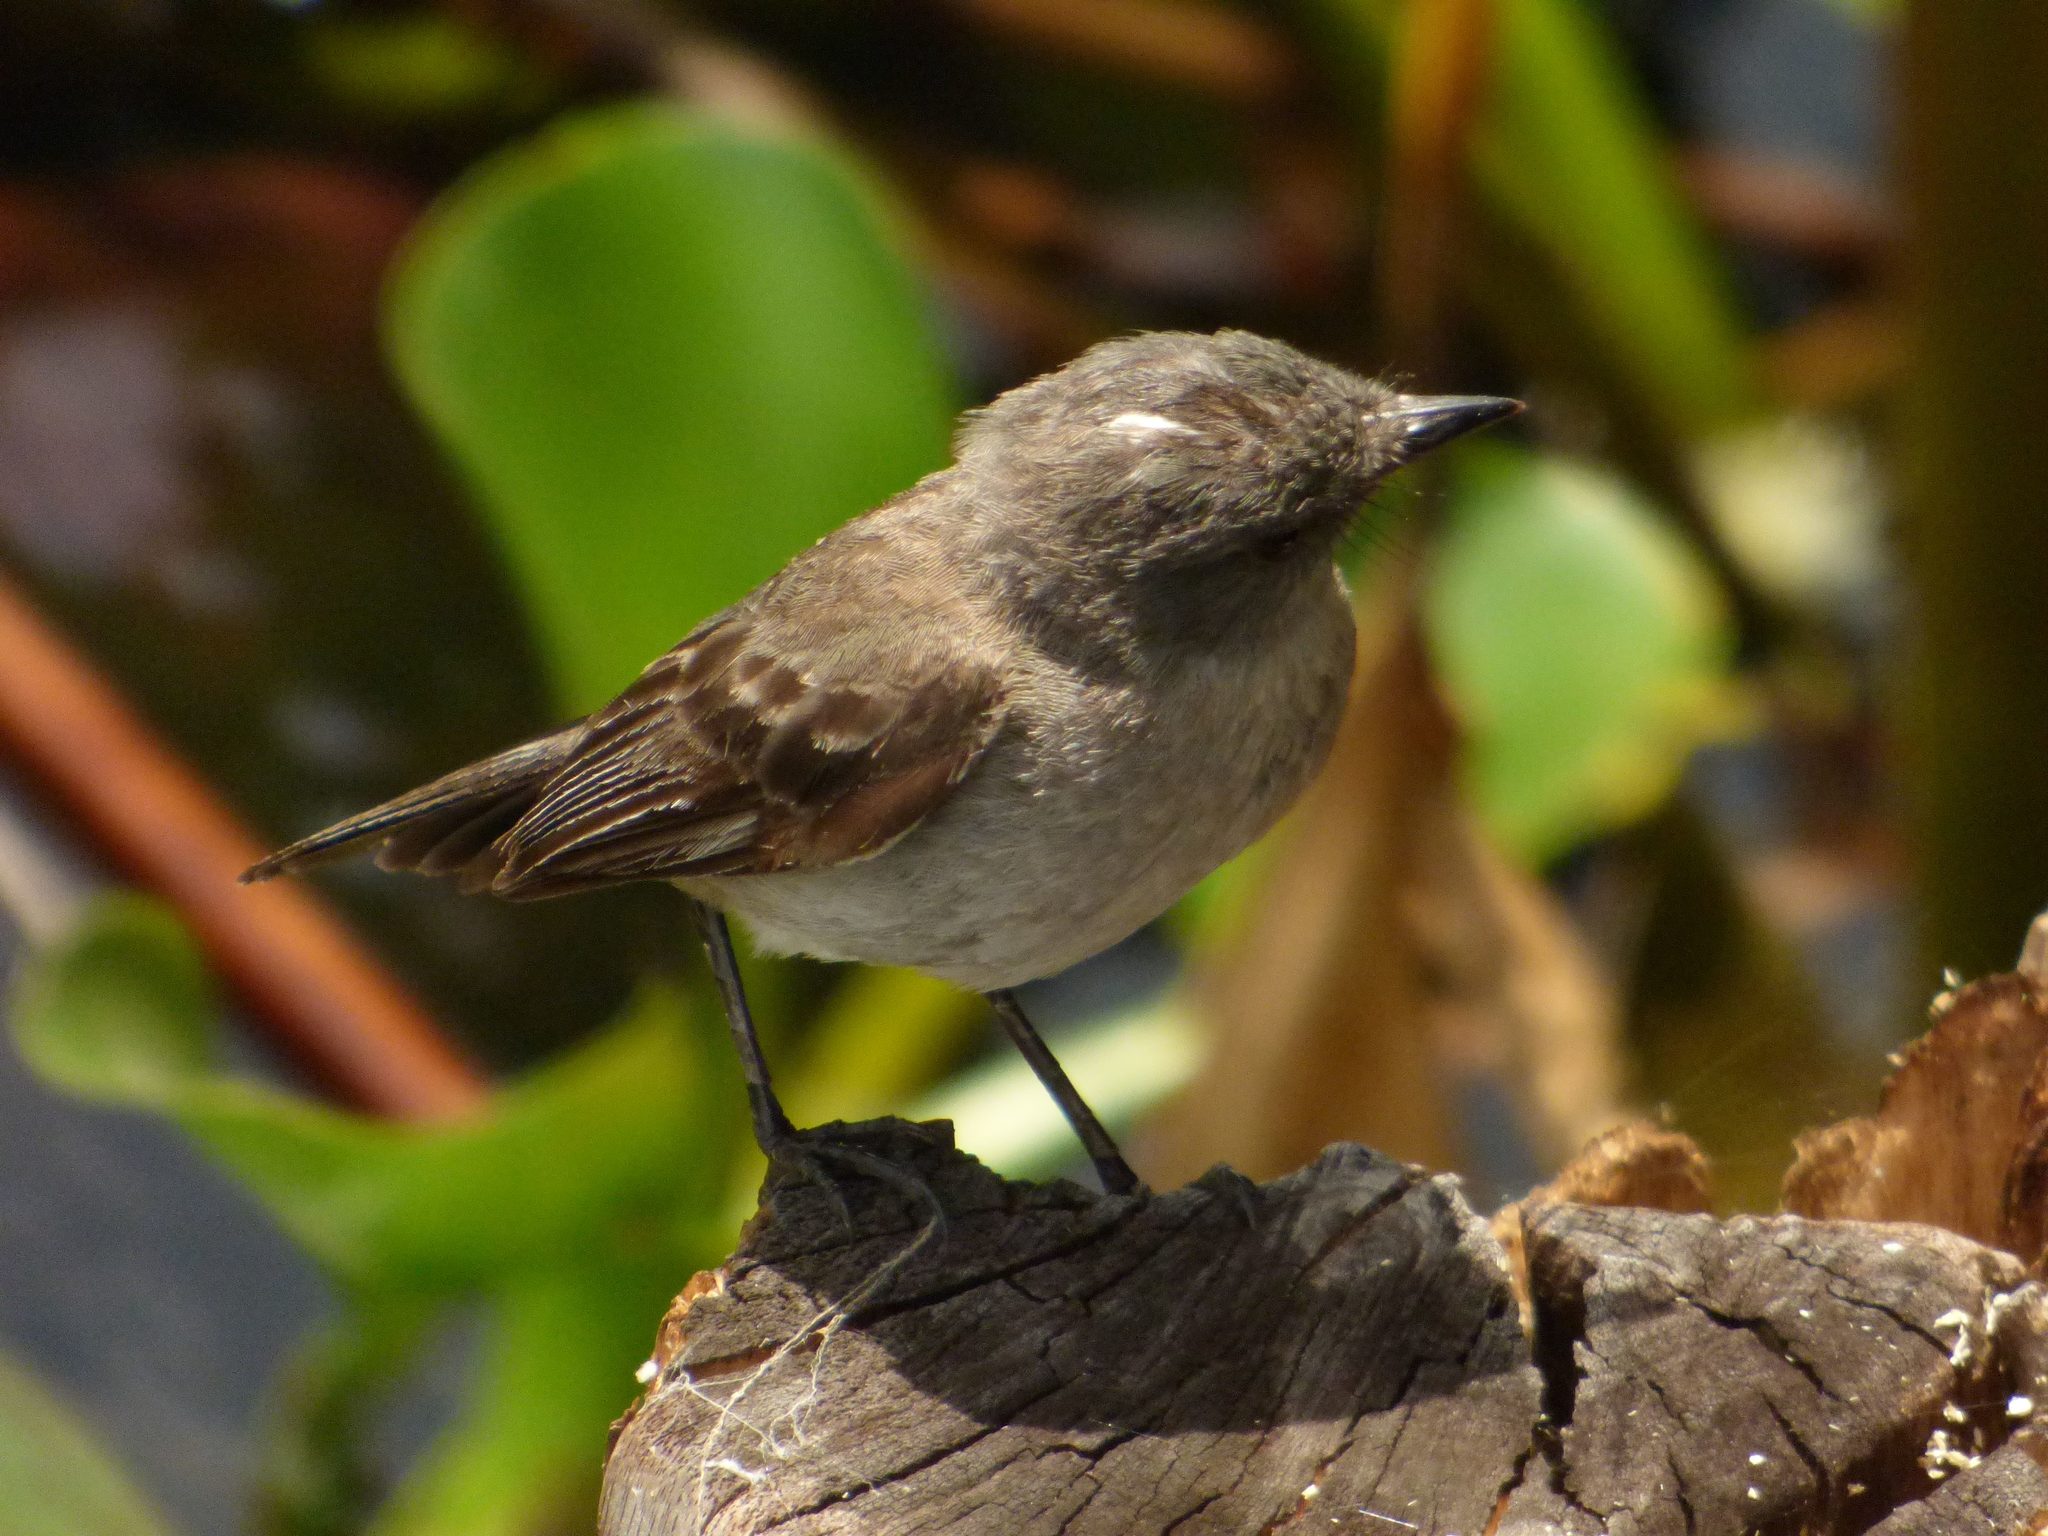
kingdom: Animalia
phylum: Chordata
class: Aves
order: Passeriformes
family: Tyrannidae
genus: Serpophaga
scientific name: Serpophaga nigricans
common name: Sooty tyrannulet
